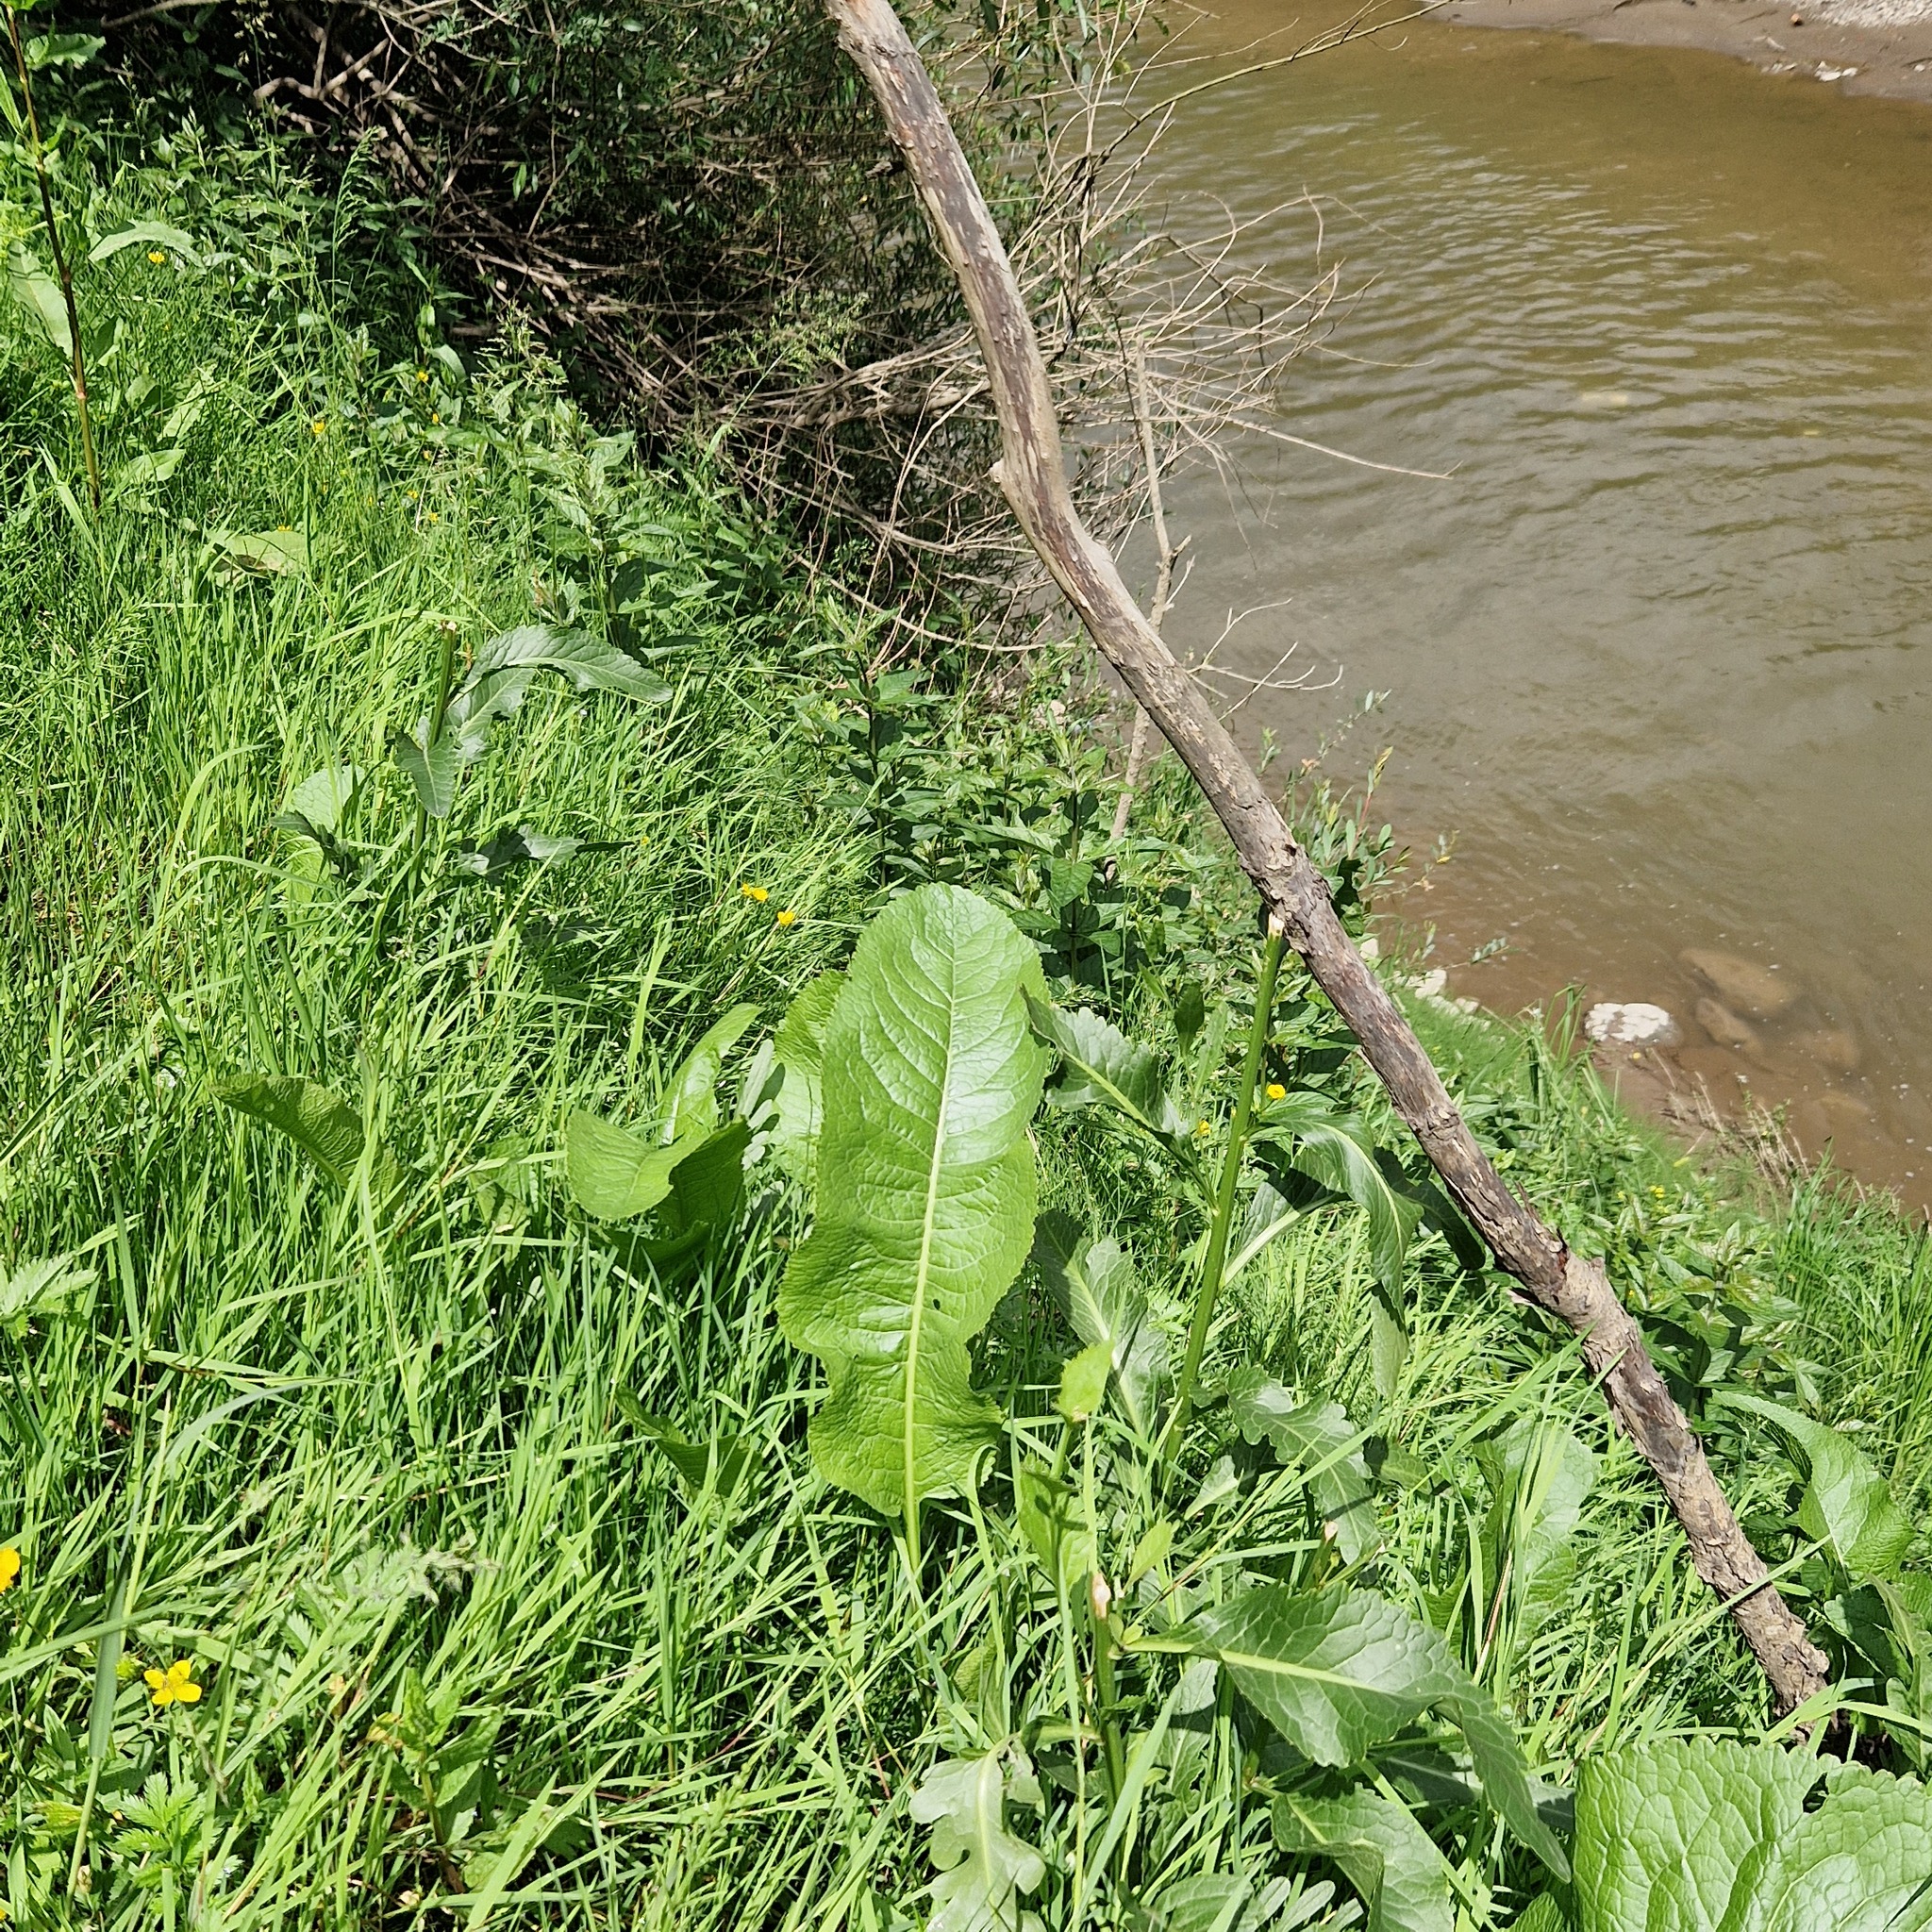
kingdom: Plantae
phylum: Tracheophyta
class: Magnoliopsida
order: Brassicales
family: Brassicaceae
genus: Armoracia
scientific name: Armoracia rusticana
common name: Horseradish
